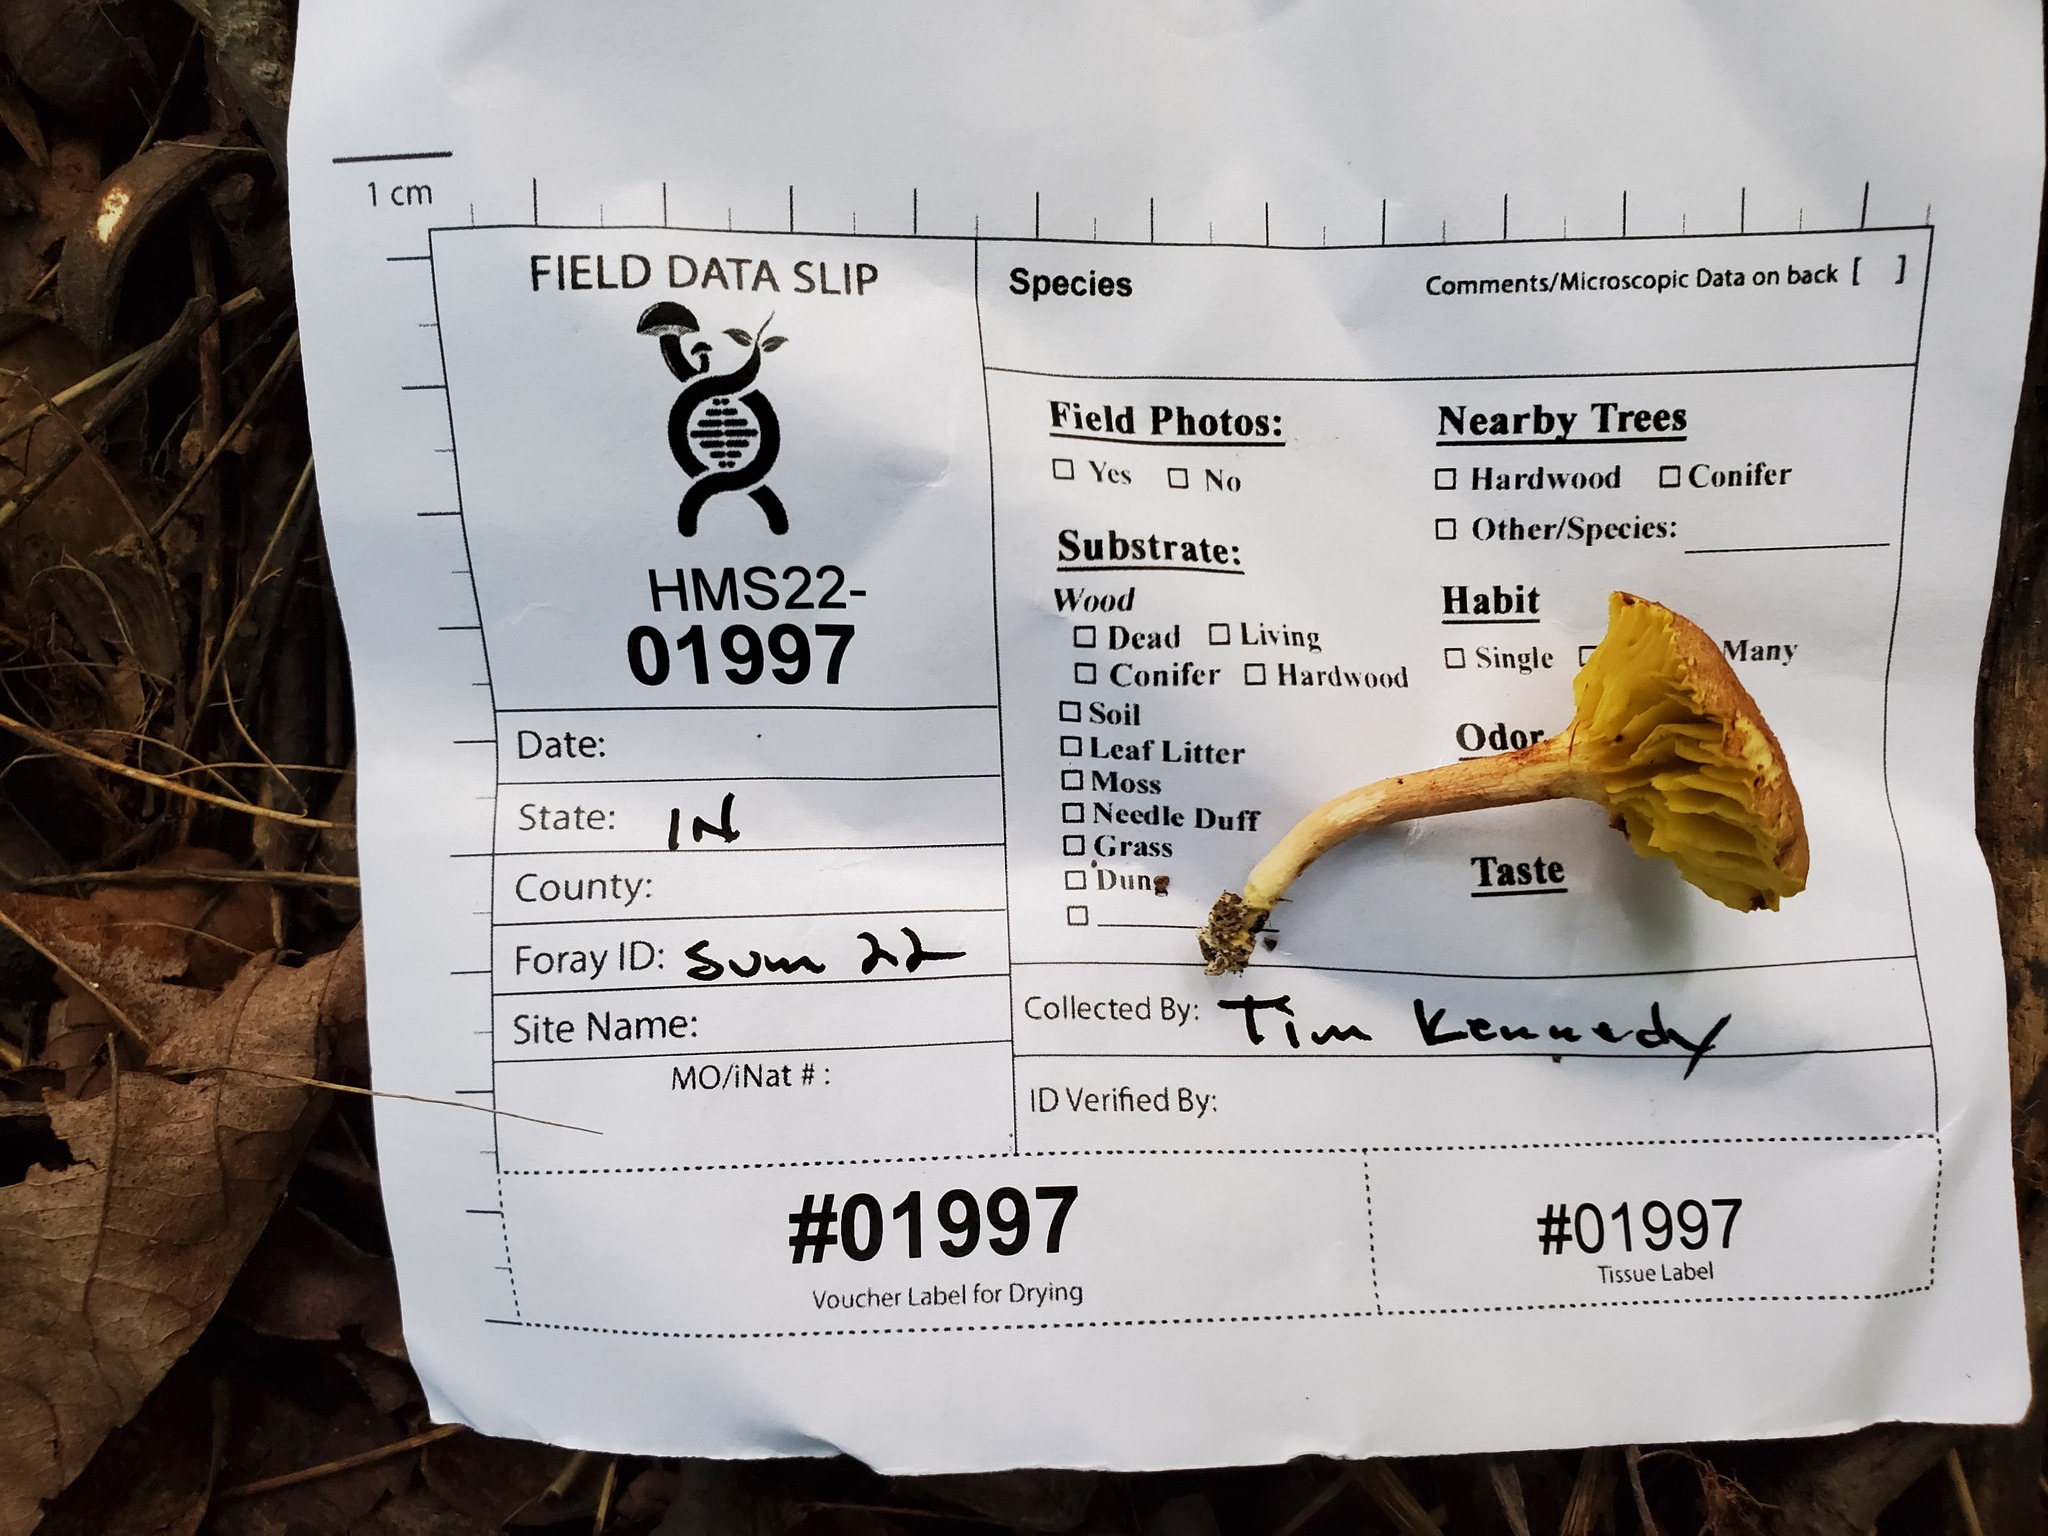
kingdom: Fungi
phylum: Basidiomycota
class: Agaricomycetes
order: Boletales
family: Boletaceae
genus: Phylloporus
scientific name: Phylloporus leucomycelinus
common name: Gilled bolete
